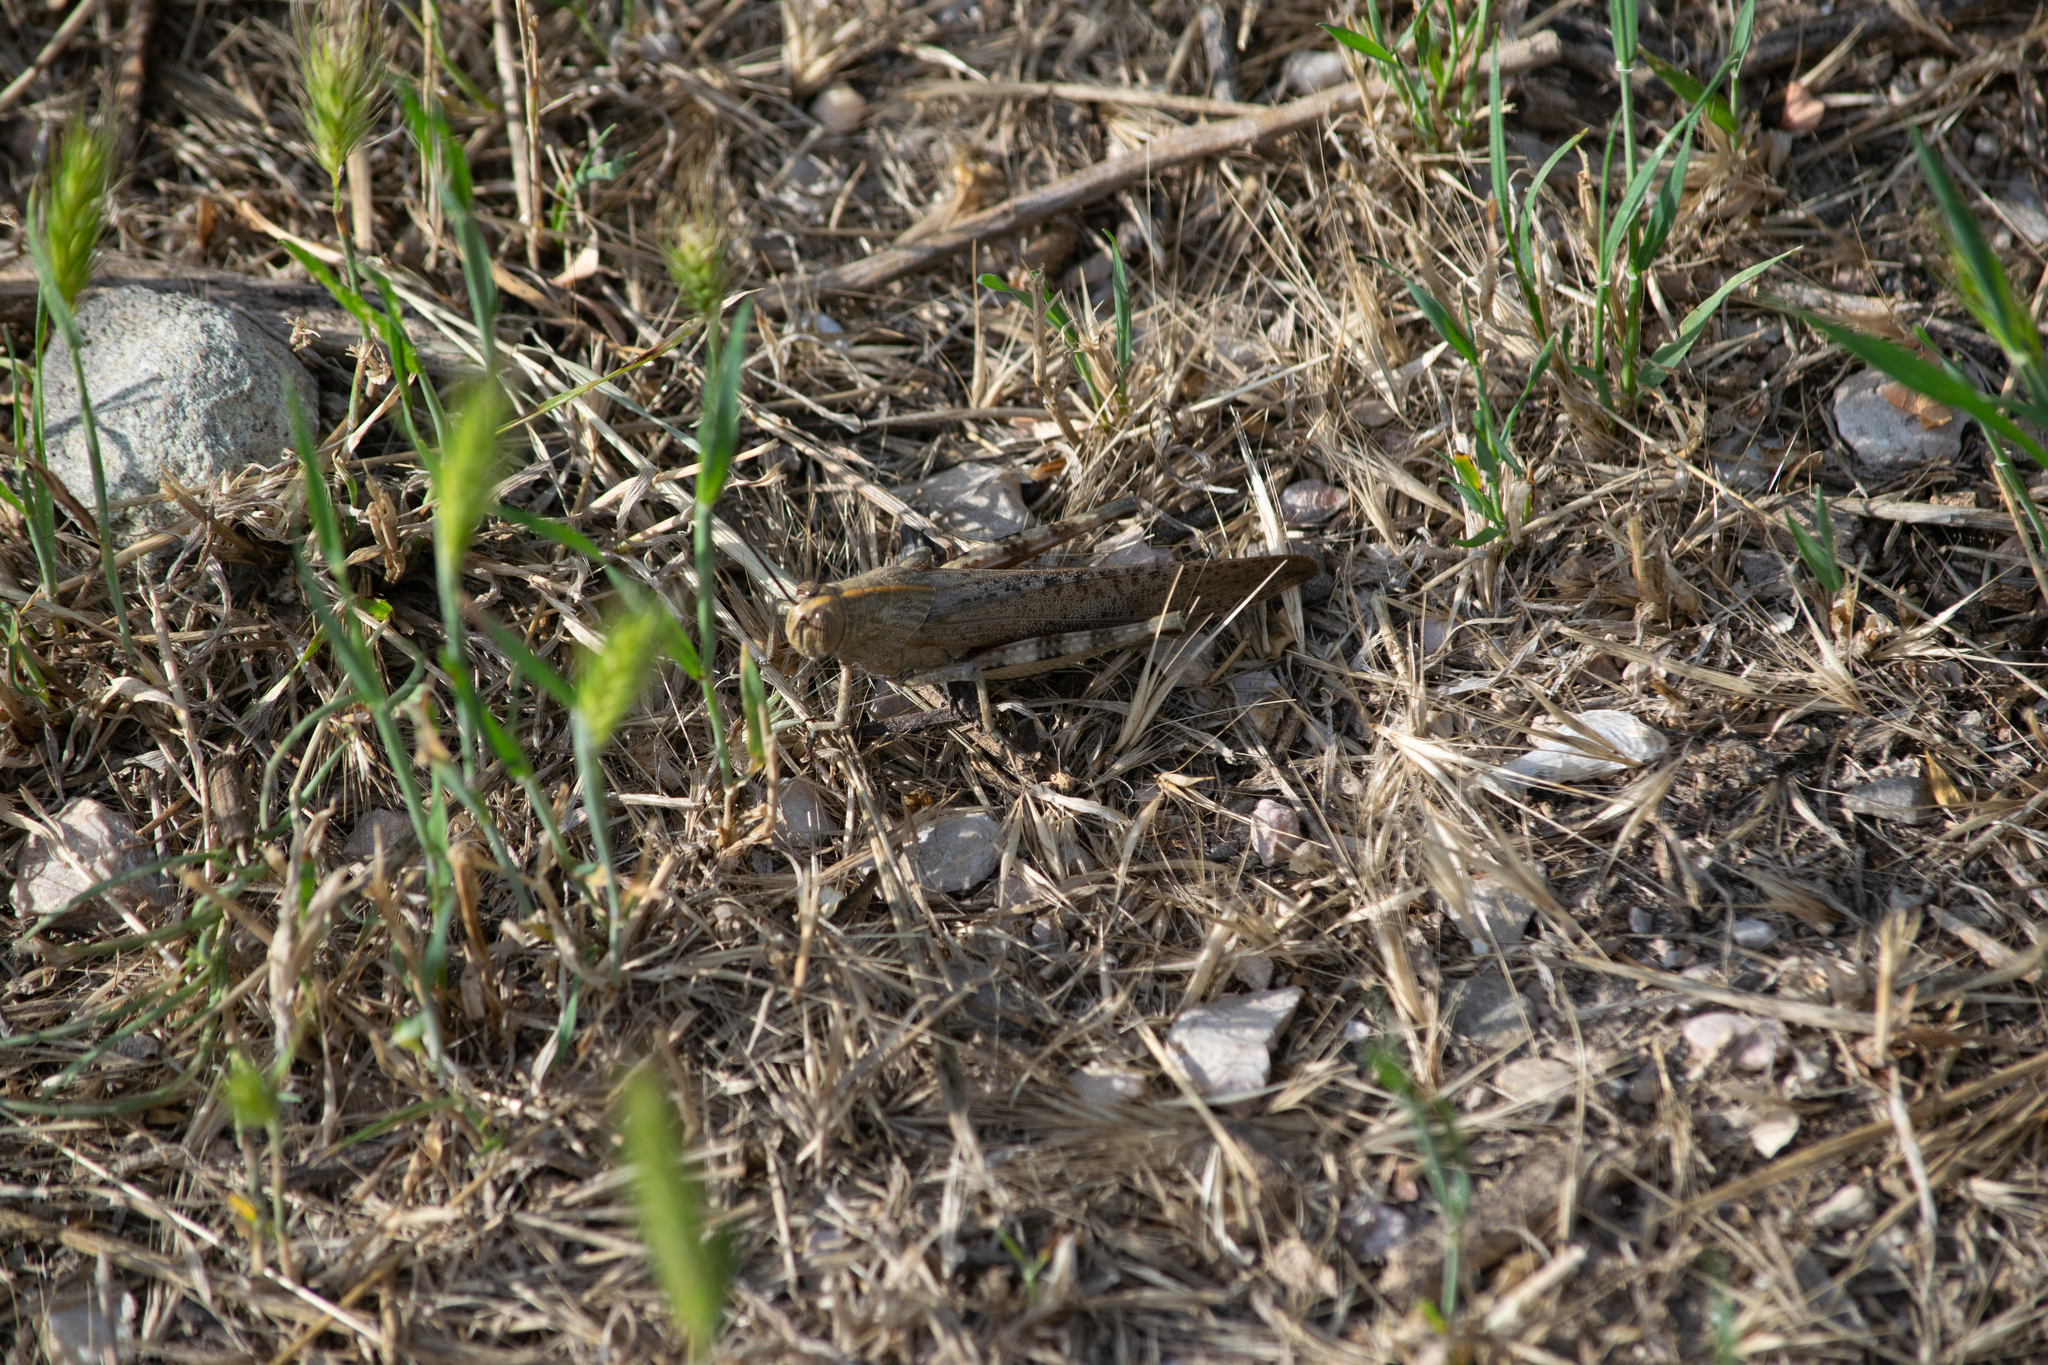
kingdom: Animalia
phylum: Arthropoda
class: Insecta
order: Orthoptera
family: Acrididae
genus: Anacridium
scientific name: Anacridium aegyptium
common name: Egyptian grasshopper
